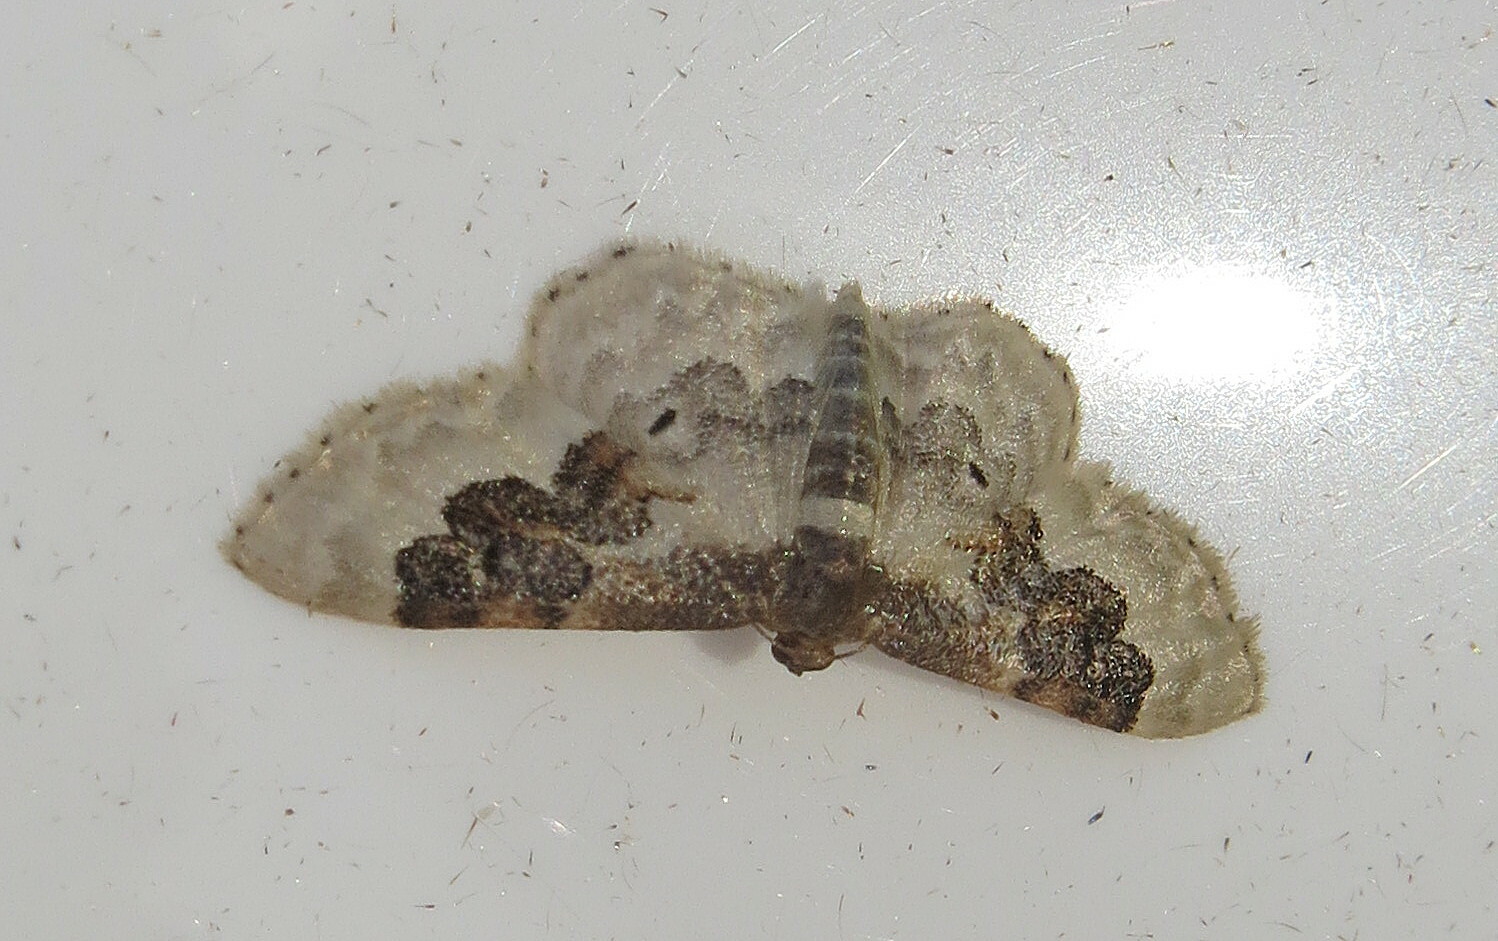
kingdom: Animalia
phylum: Arthropoda
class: Insecta
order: Lepidoptera
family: Geometridae
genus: Idaea
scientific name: Idaea rusticata
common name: Least carpet
